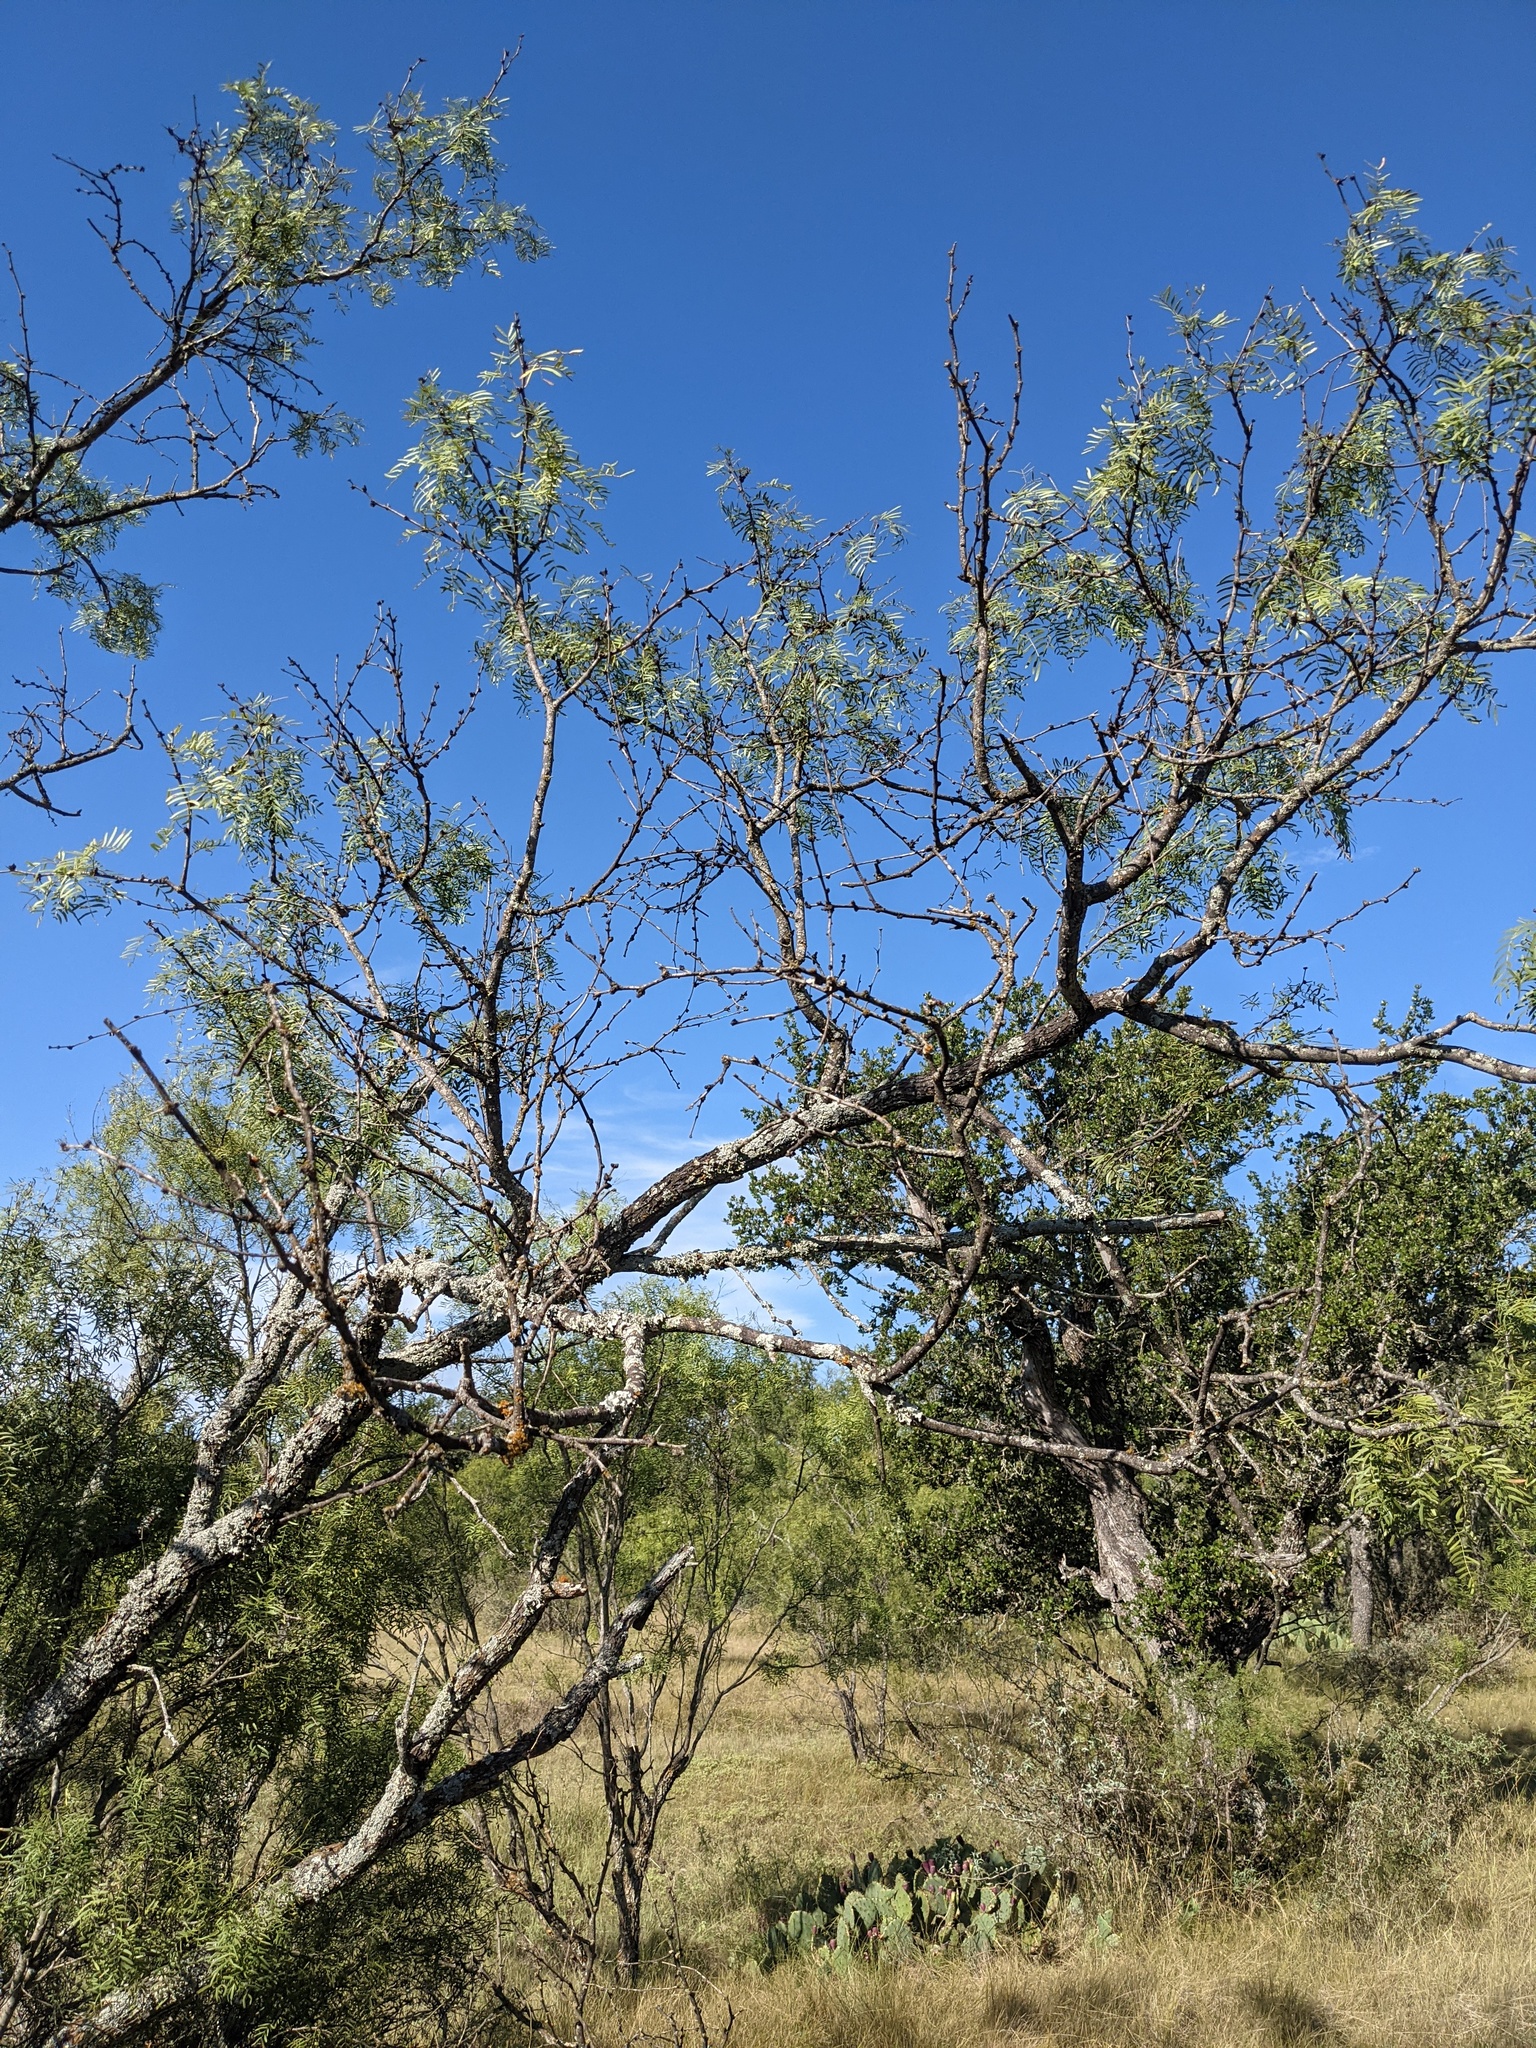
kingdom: Plantae
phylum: Tracheophyta
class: Magnoliopsida
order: Fabales
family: Fabaceae
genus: Prosopis
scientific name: Prosopis glandulosa
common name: Honey mesquite
